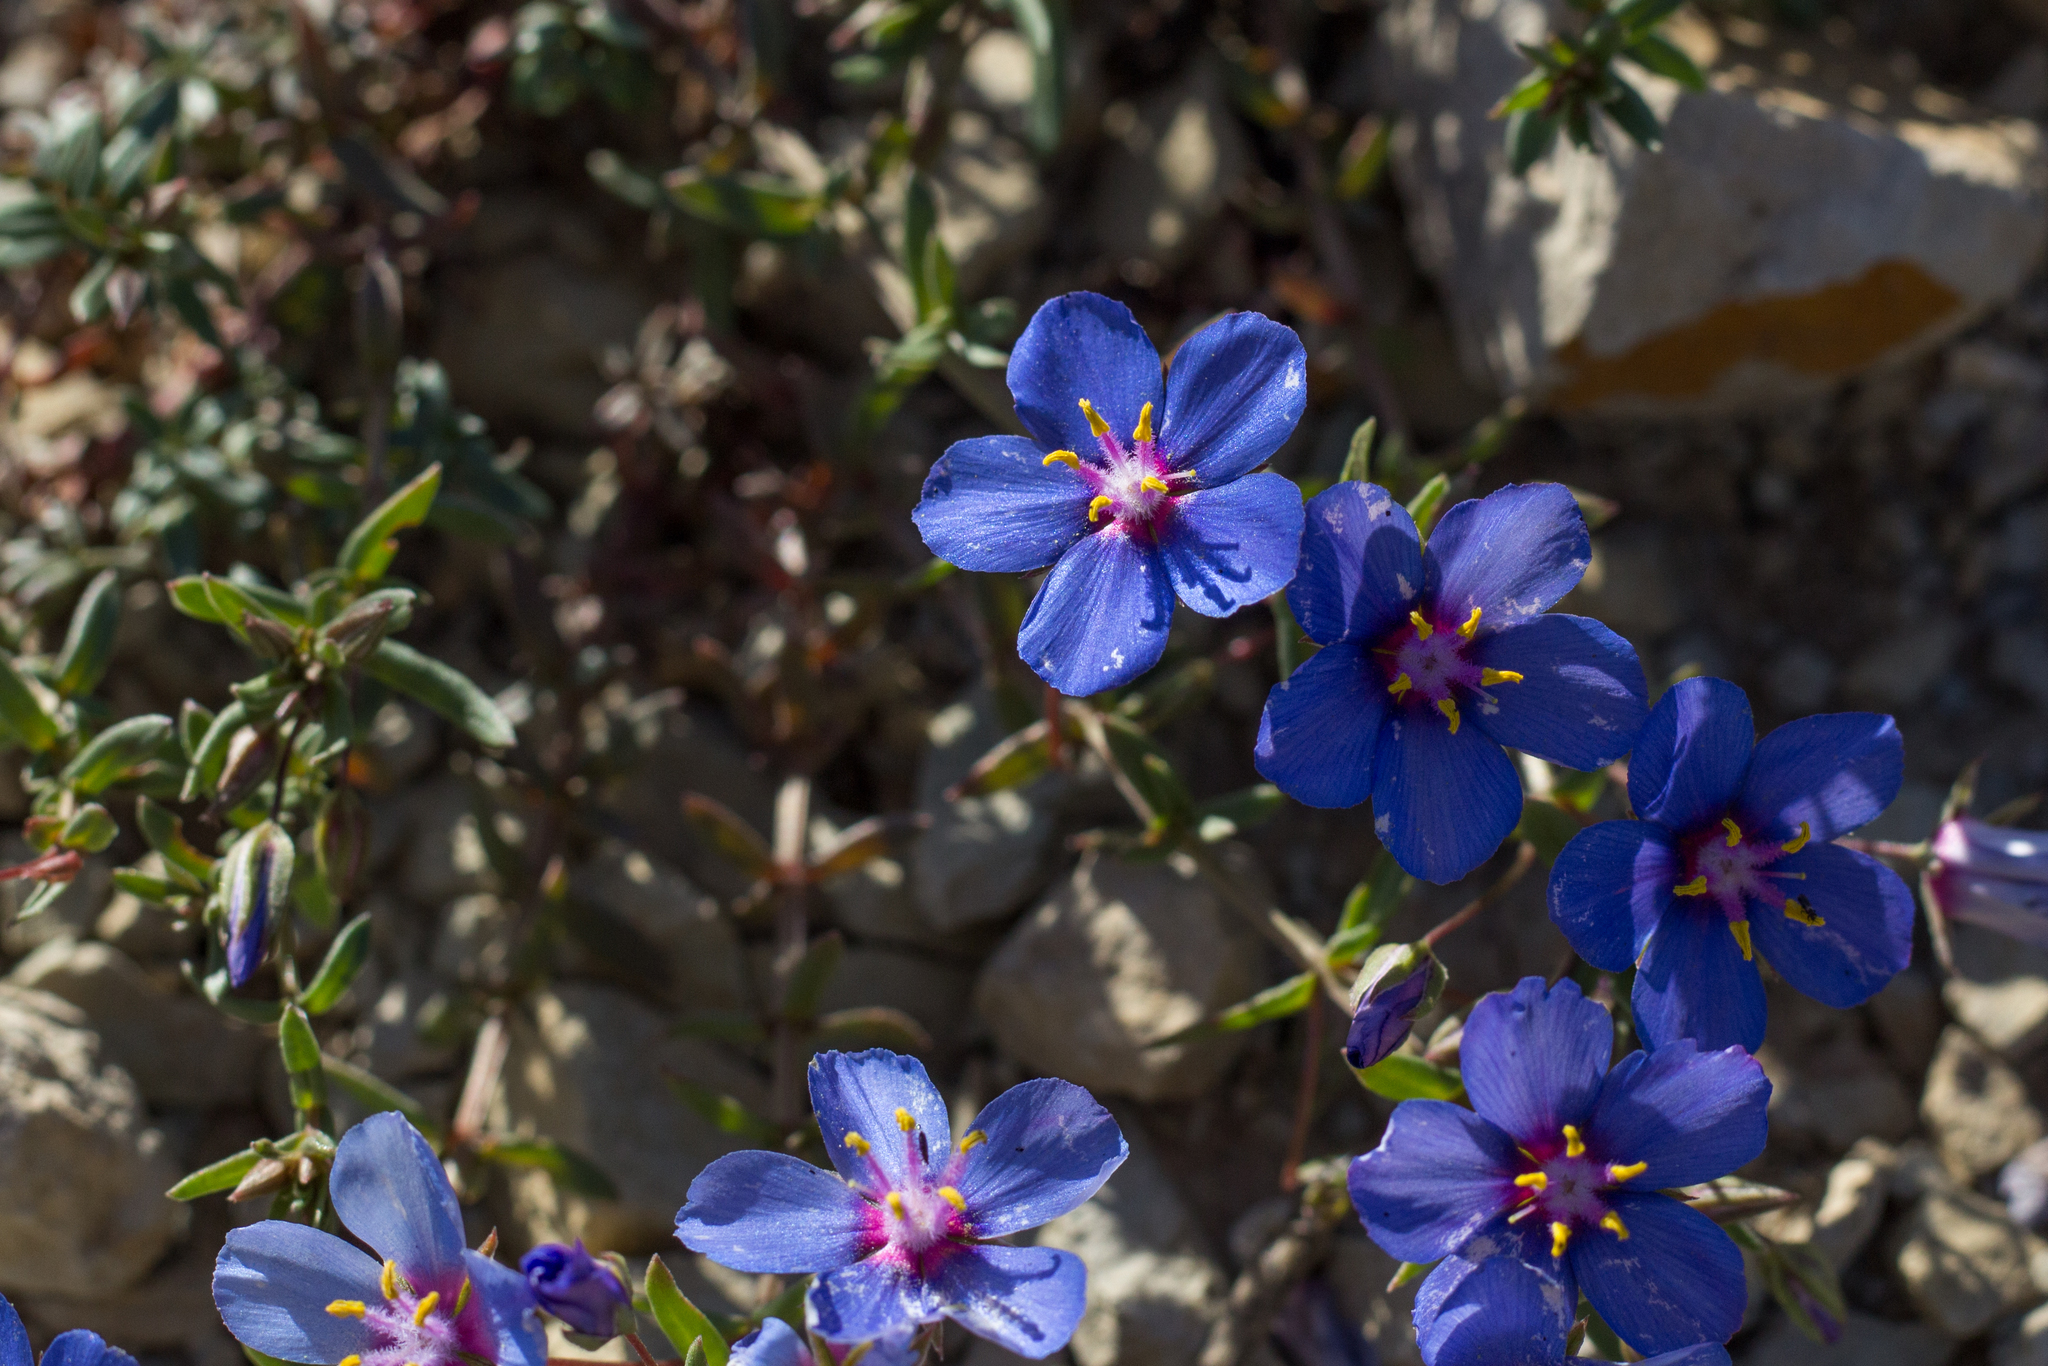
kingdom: Plantae
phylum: Tracheophyta
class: Magnoliopsida
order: Ericales
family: Primulaceae
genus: Lysimachia
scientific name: Lysimachia monelli
